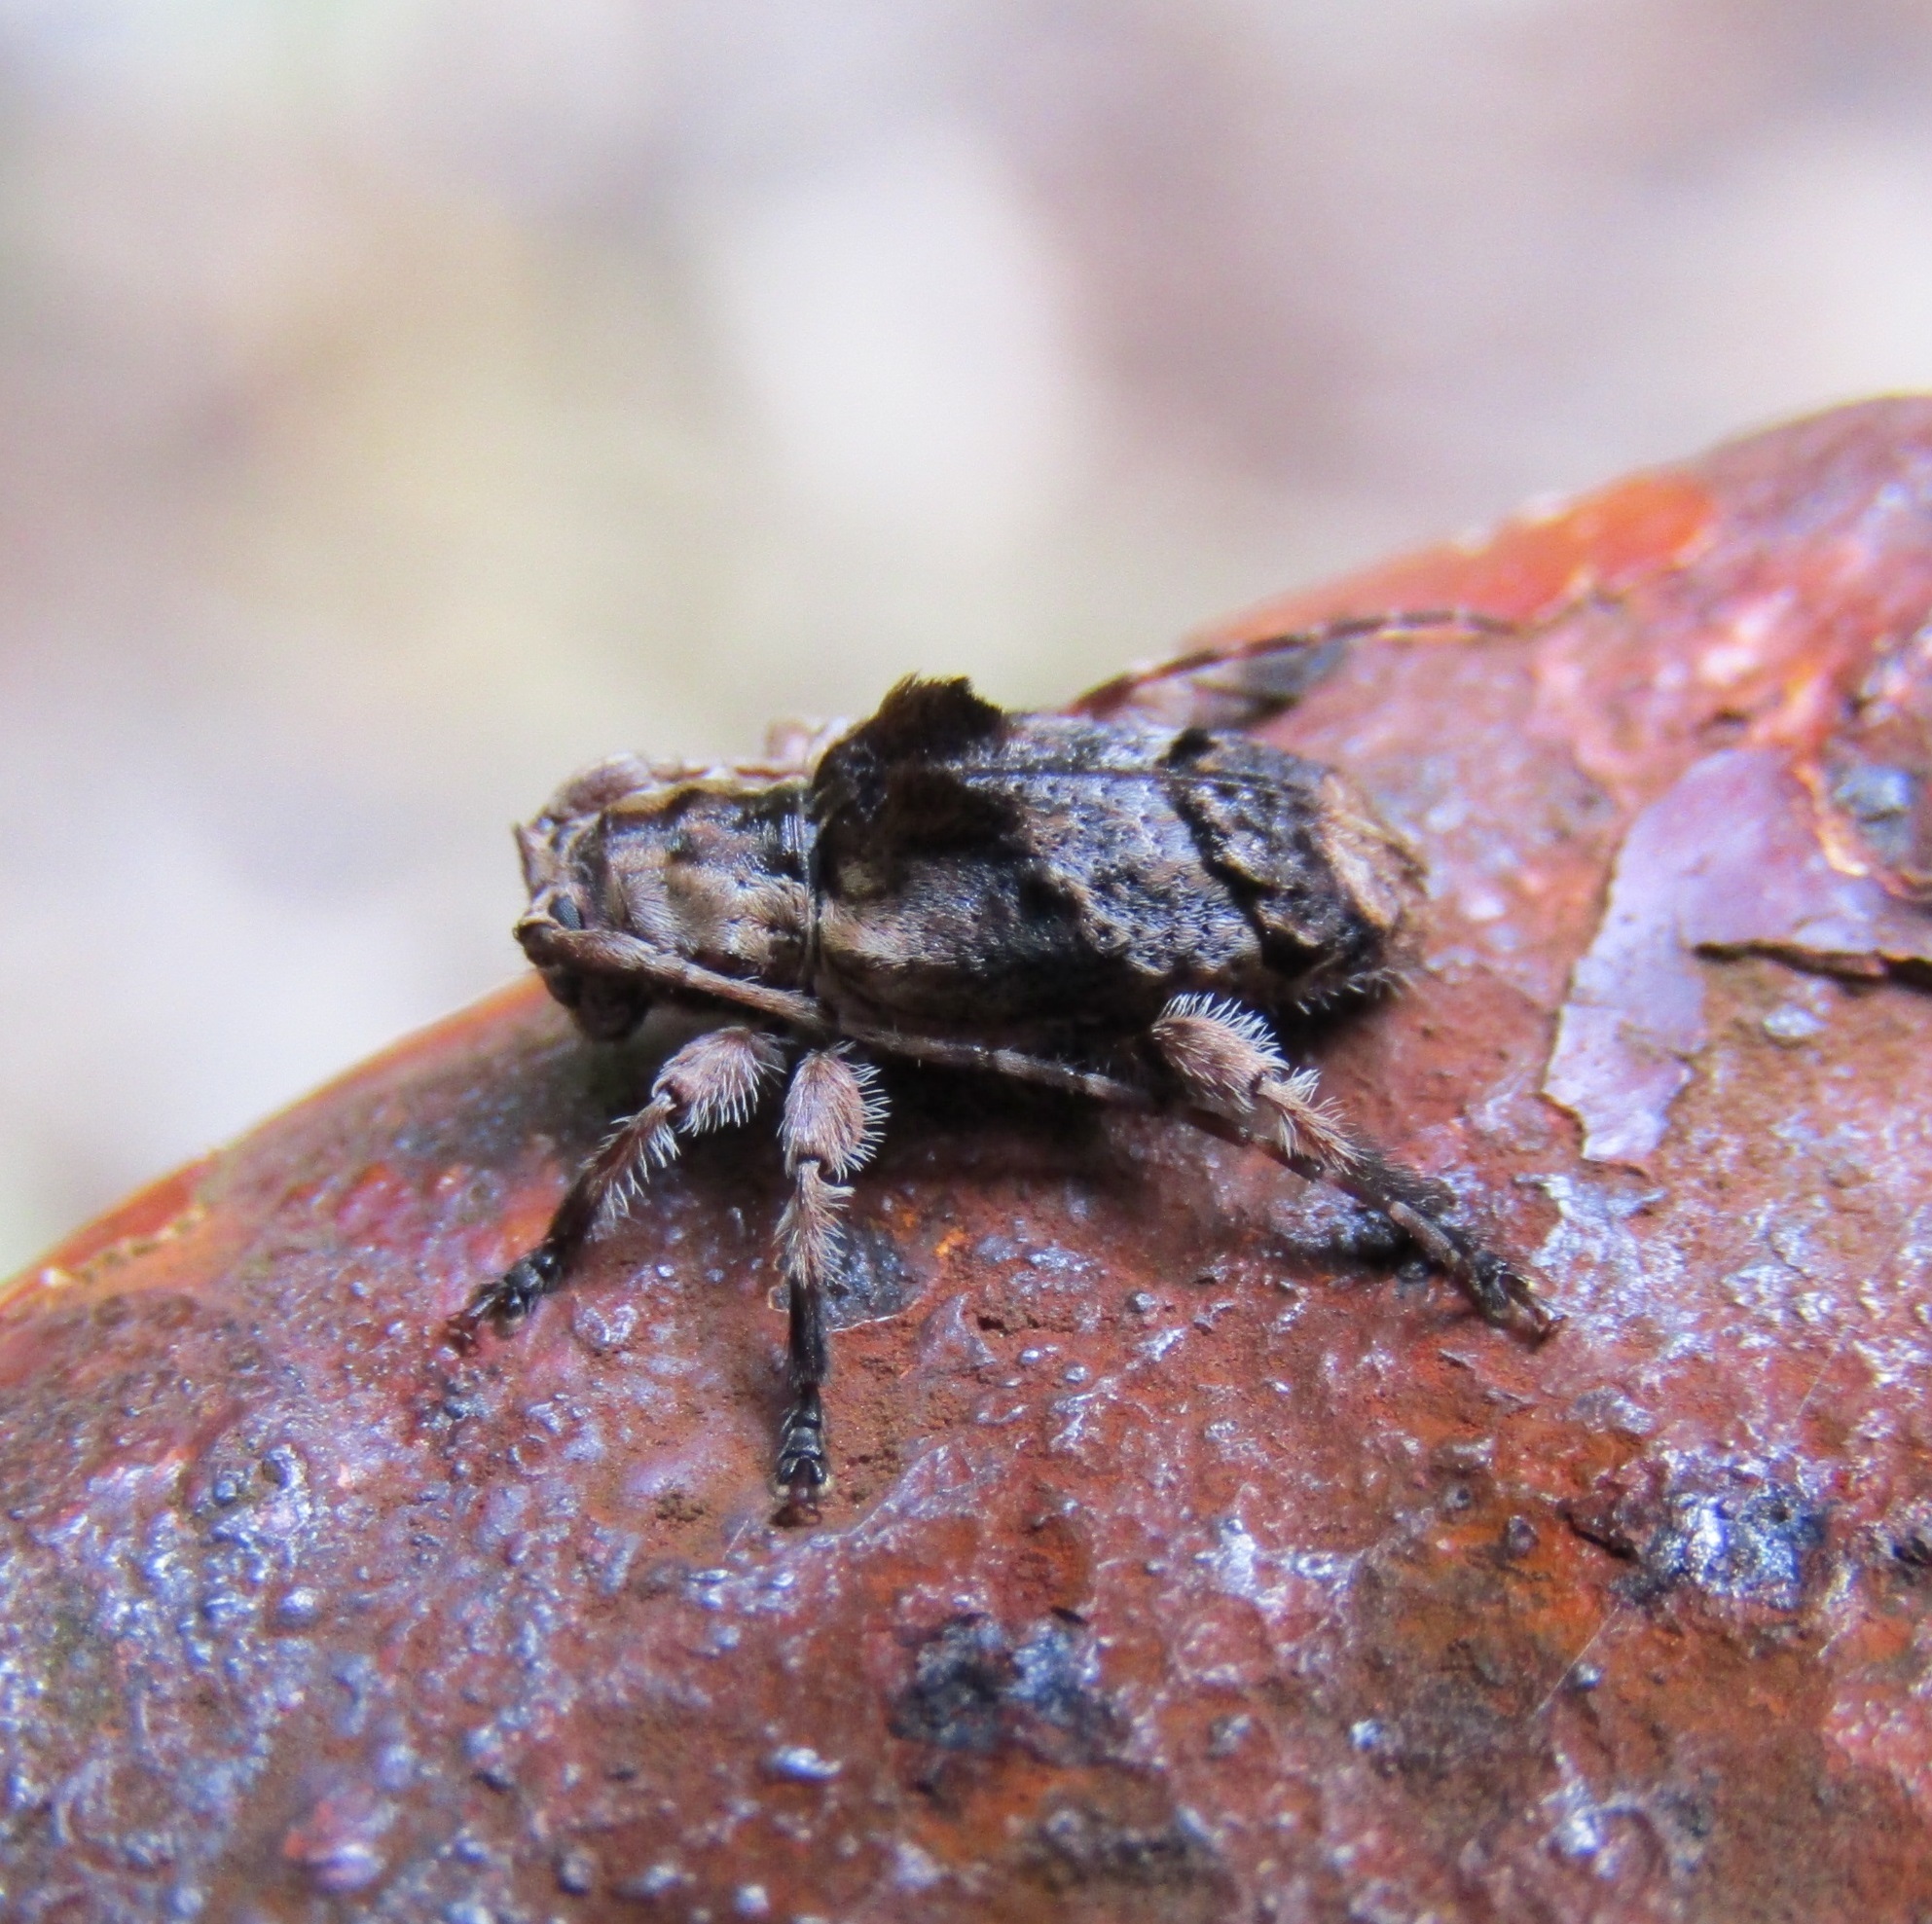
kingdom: Animalia
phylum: Arthropoda
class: Insecta
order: Coleoptera
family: Cerambycidae
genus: Hybolasius
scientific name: Hybolasius cristus
